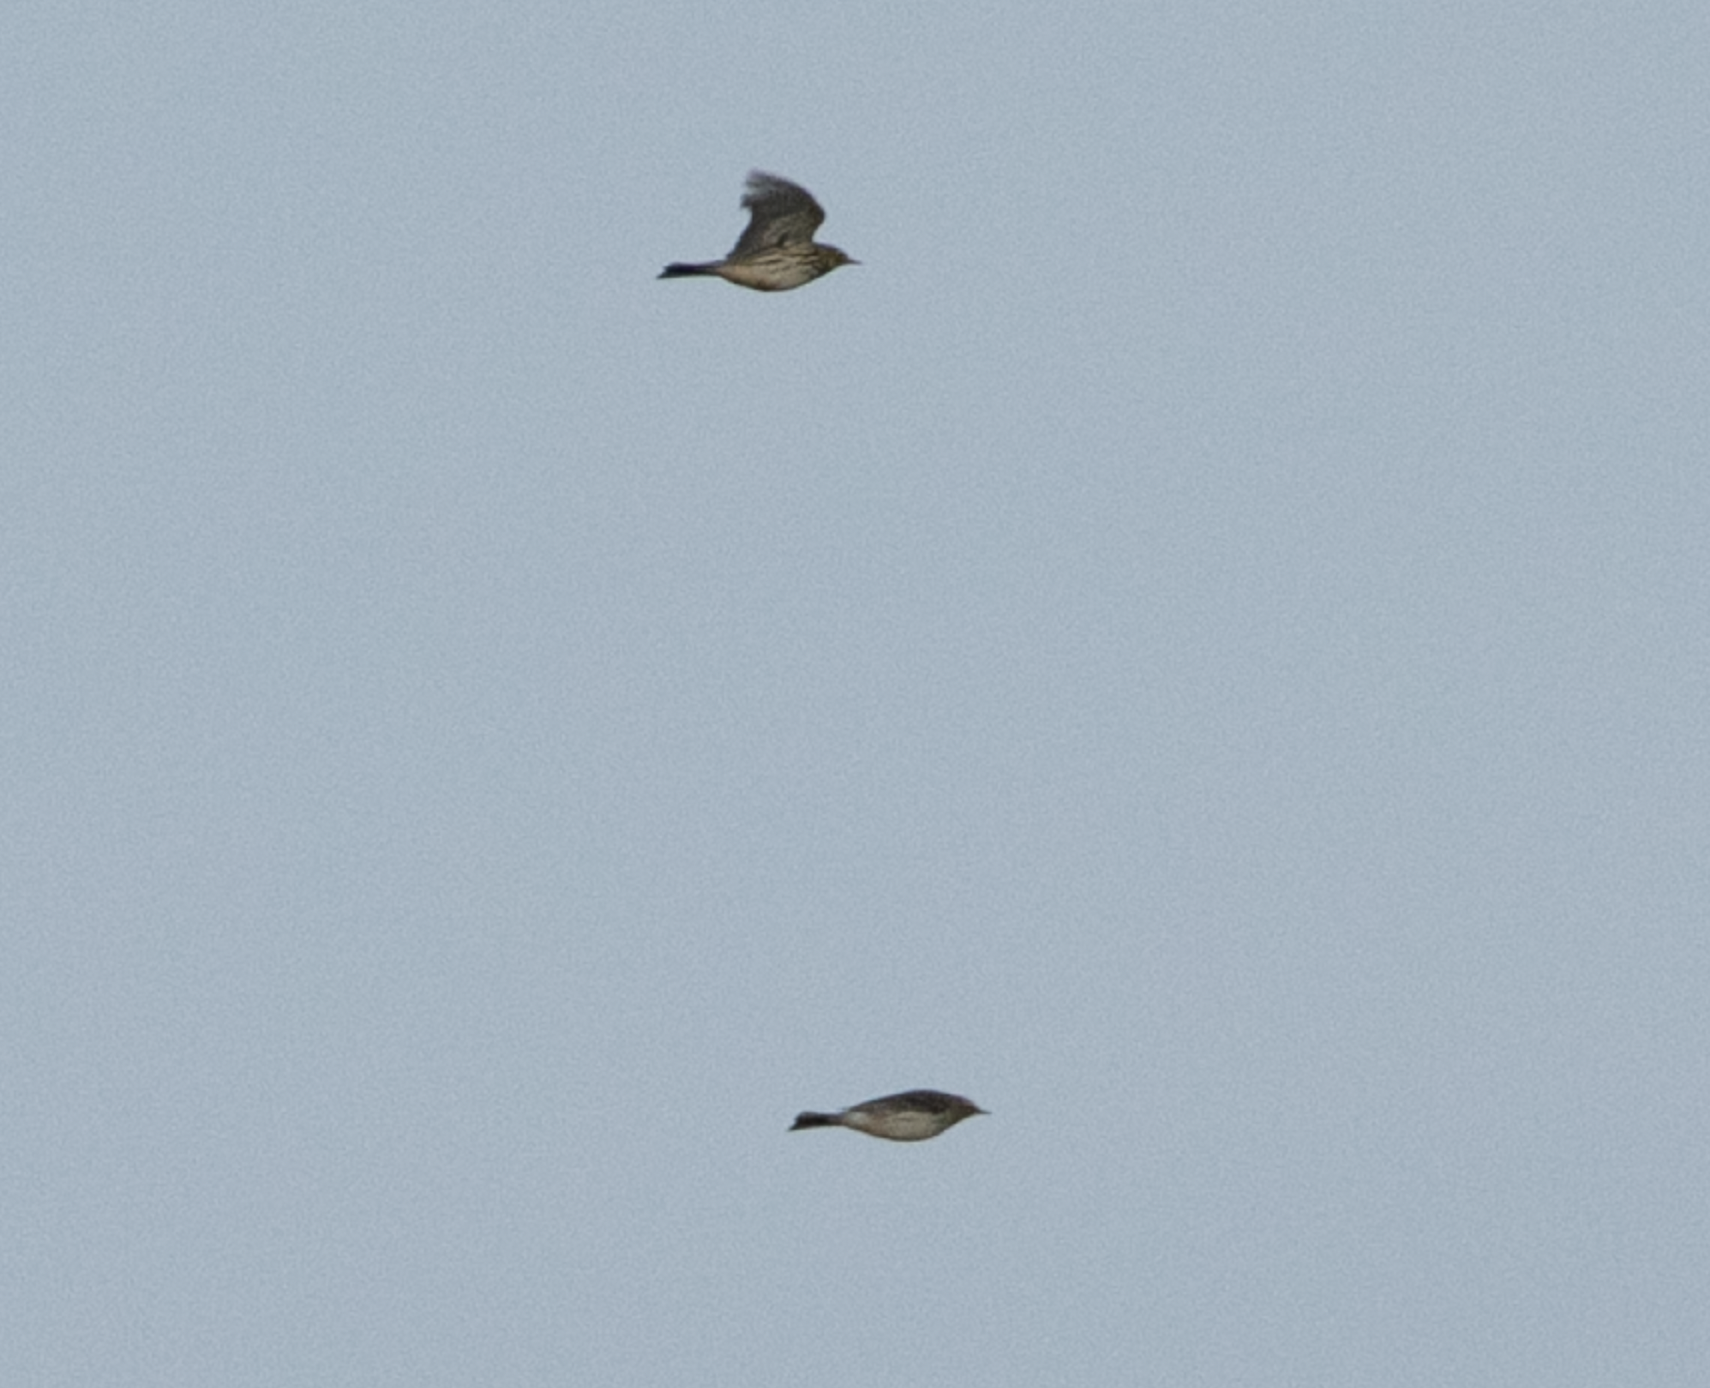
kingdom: Animalia
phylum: Chordata
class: Aves
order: Passeriformes
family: Motacillidae
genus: Anthus
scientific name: Anthus spinoletta
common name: Water pipit
